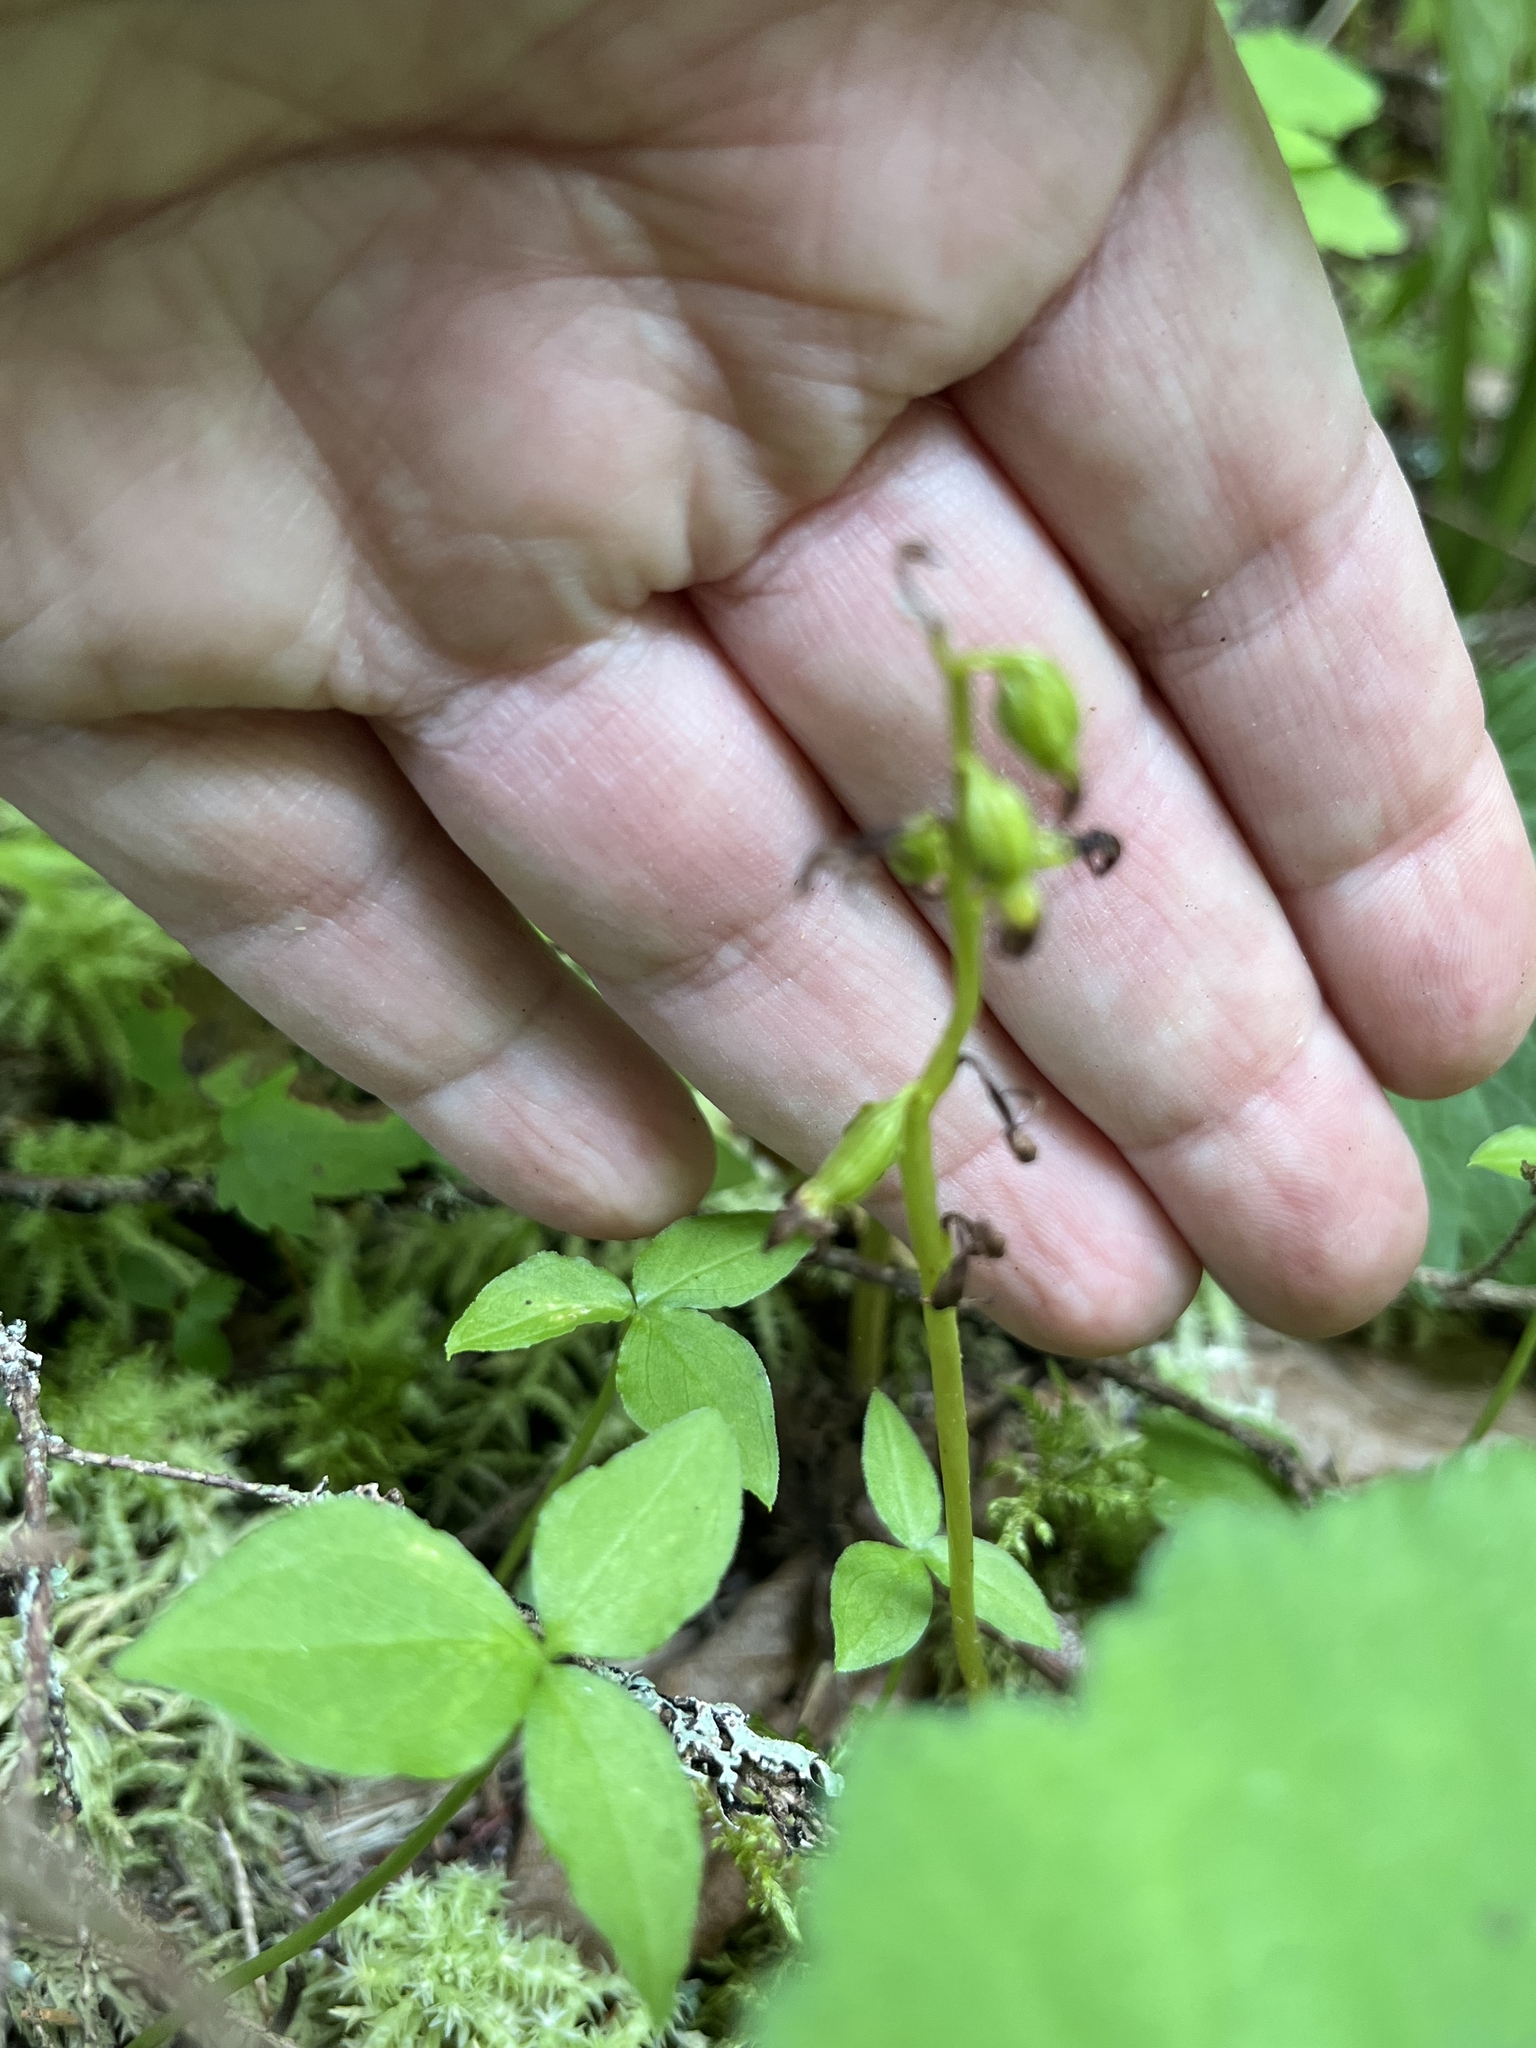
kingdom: Plantae
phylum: Tracheophyta
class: Liliopsida
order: Asparagales
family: Orchidaceae
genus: Corallorhiza
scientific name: Corallorhiza trifida
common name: Yellow coralroot
